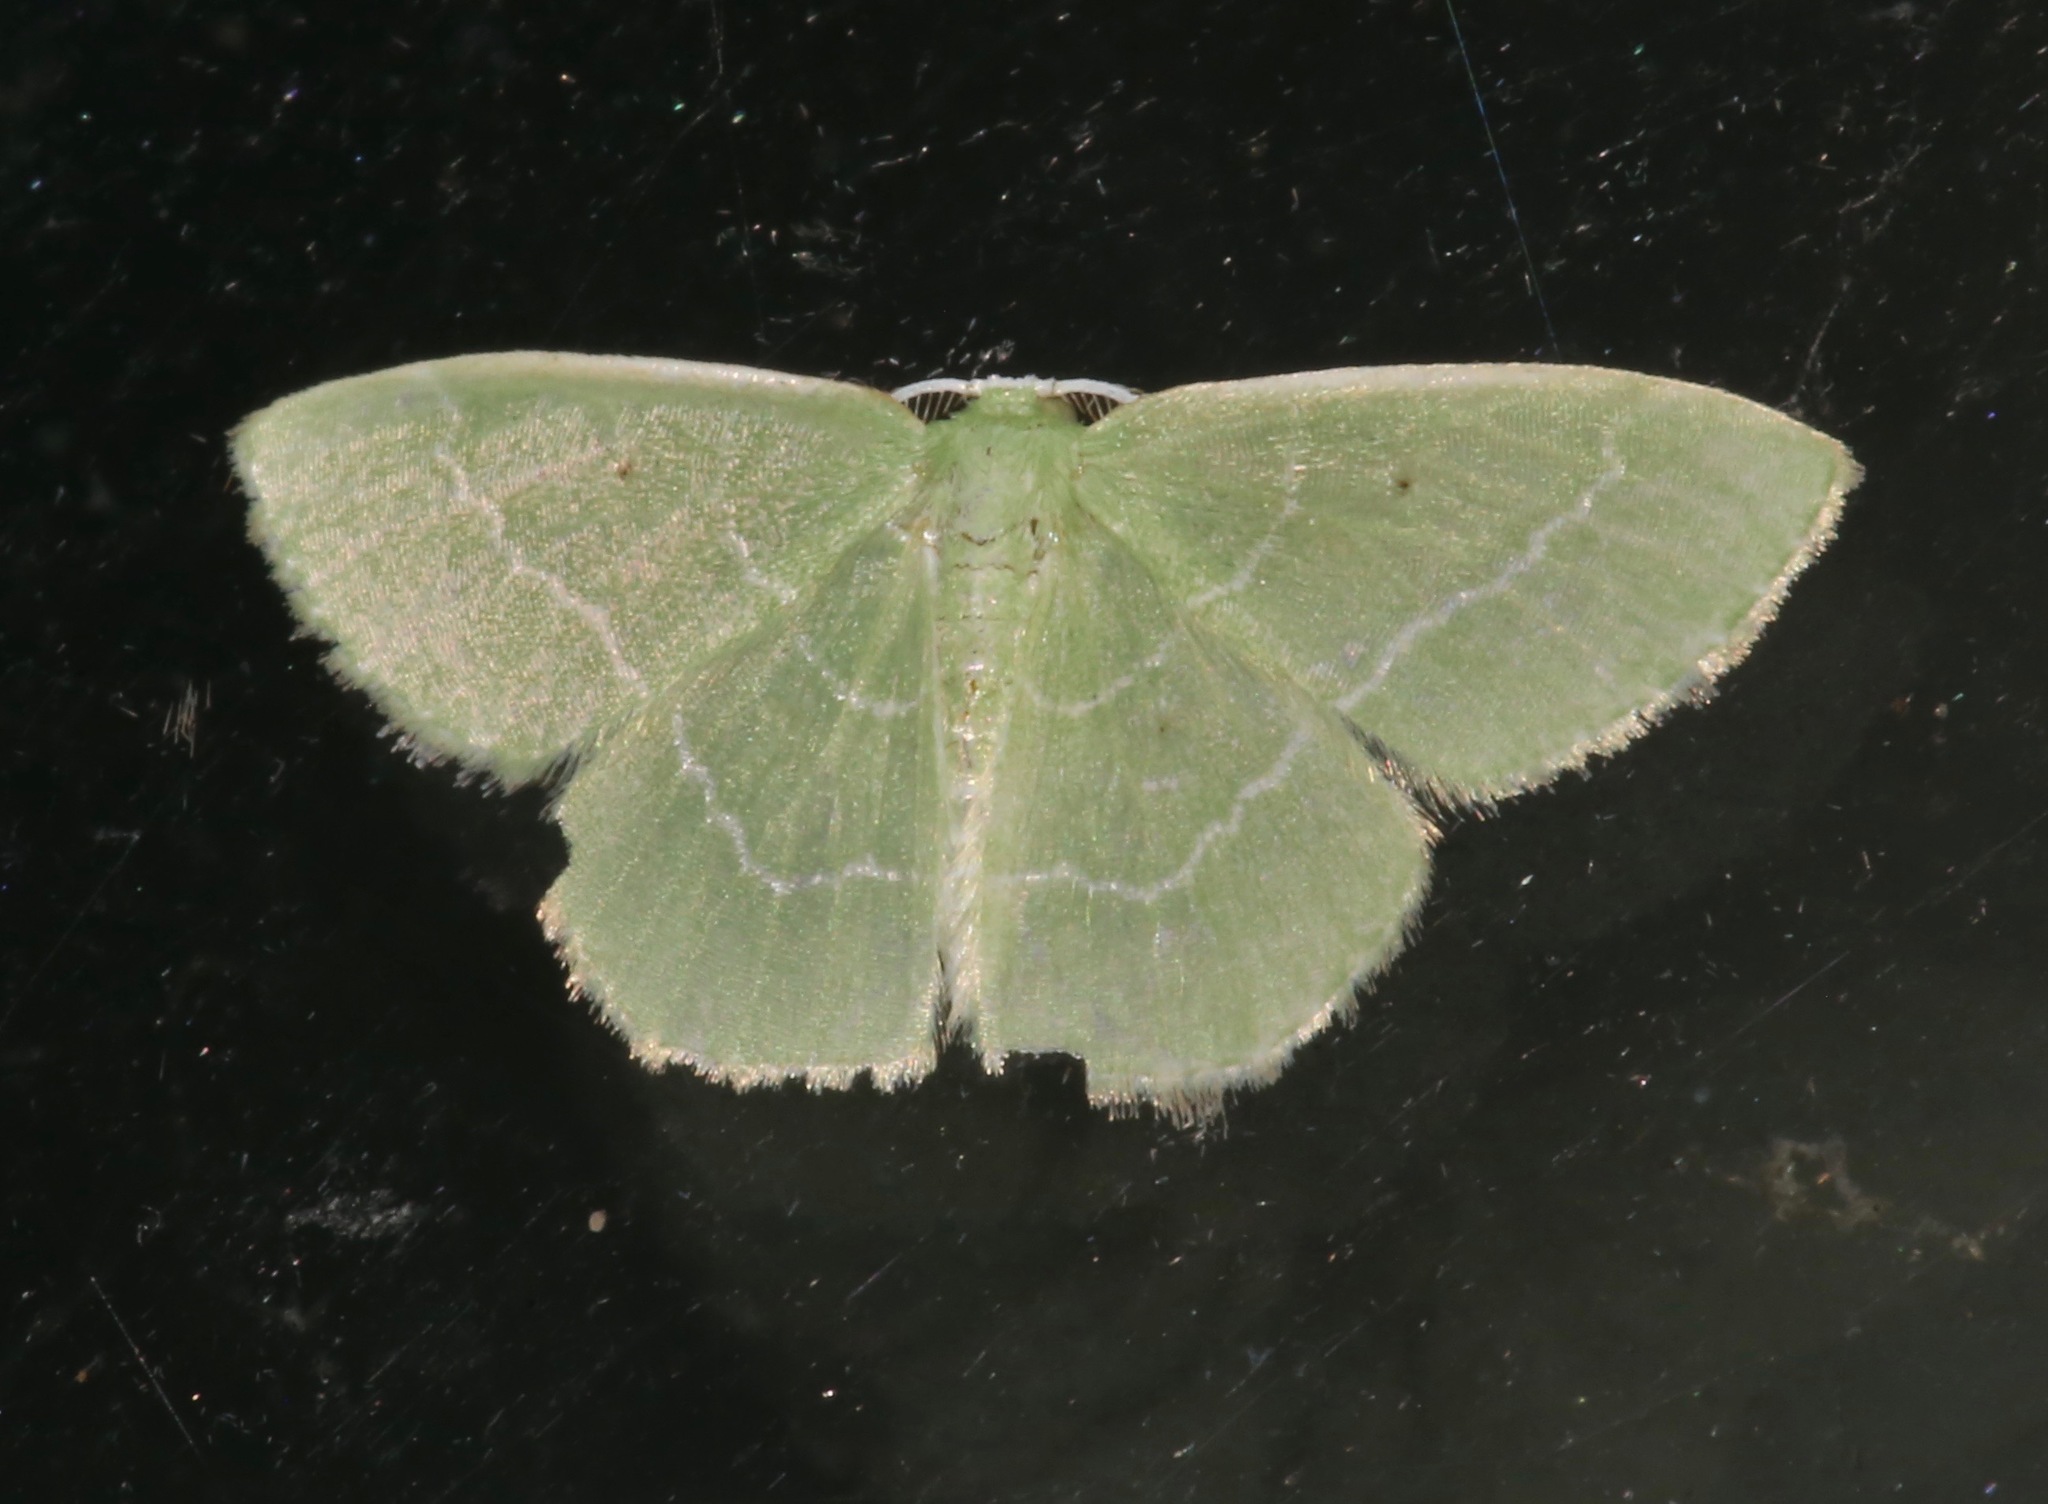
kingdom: Animalia
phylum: Arthropoda
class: Insecta
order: Lepidoptera
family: Geometridae
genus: Nemoria
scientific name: Nemoria elfa
